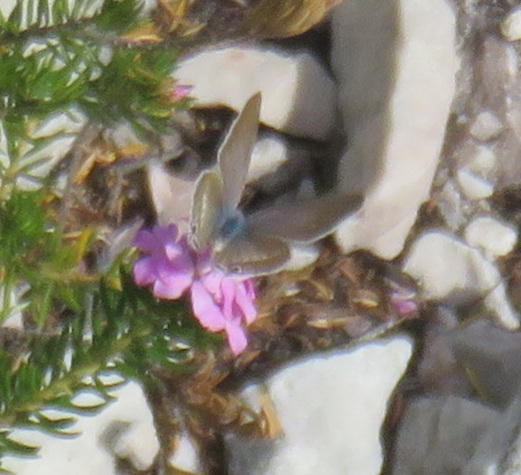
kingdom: Animalia
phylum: Arthropoda
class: Insecta
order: Lepidoptera
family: Lycaenidae
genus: Lampides
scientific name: Lampides boeticus
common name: Long-tailed blue
